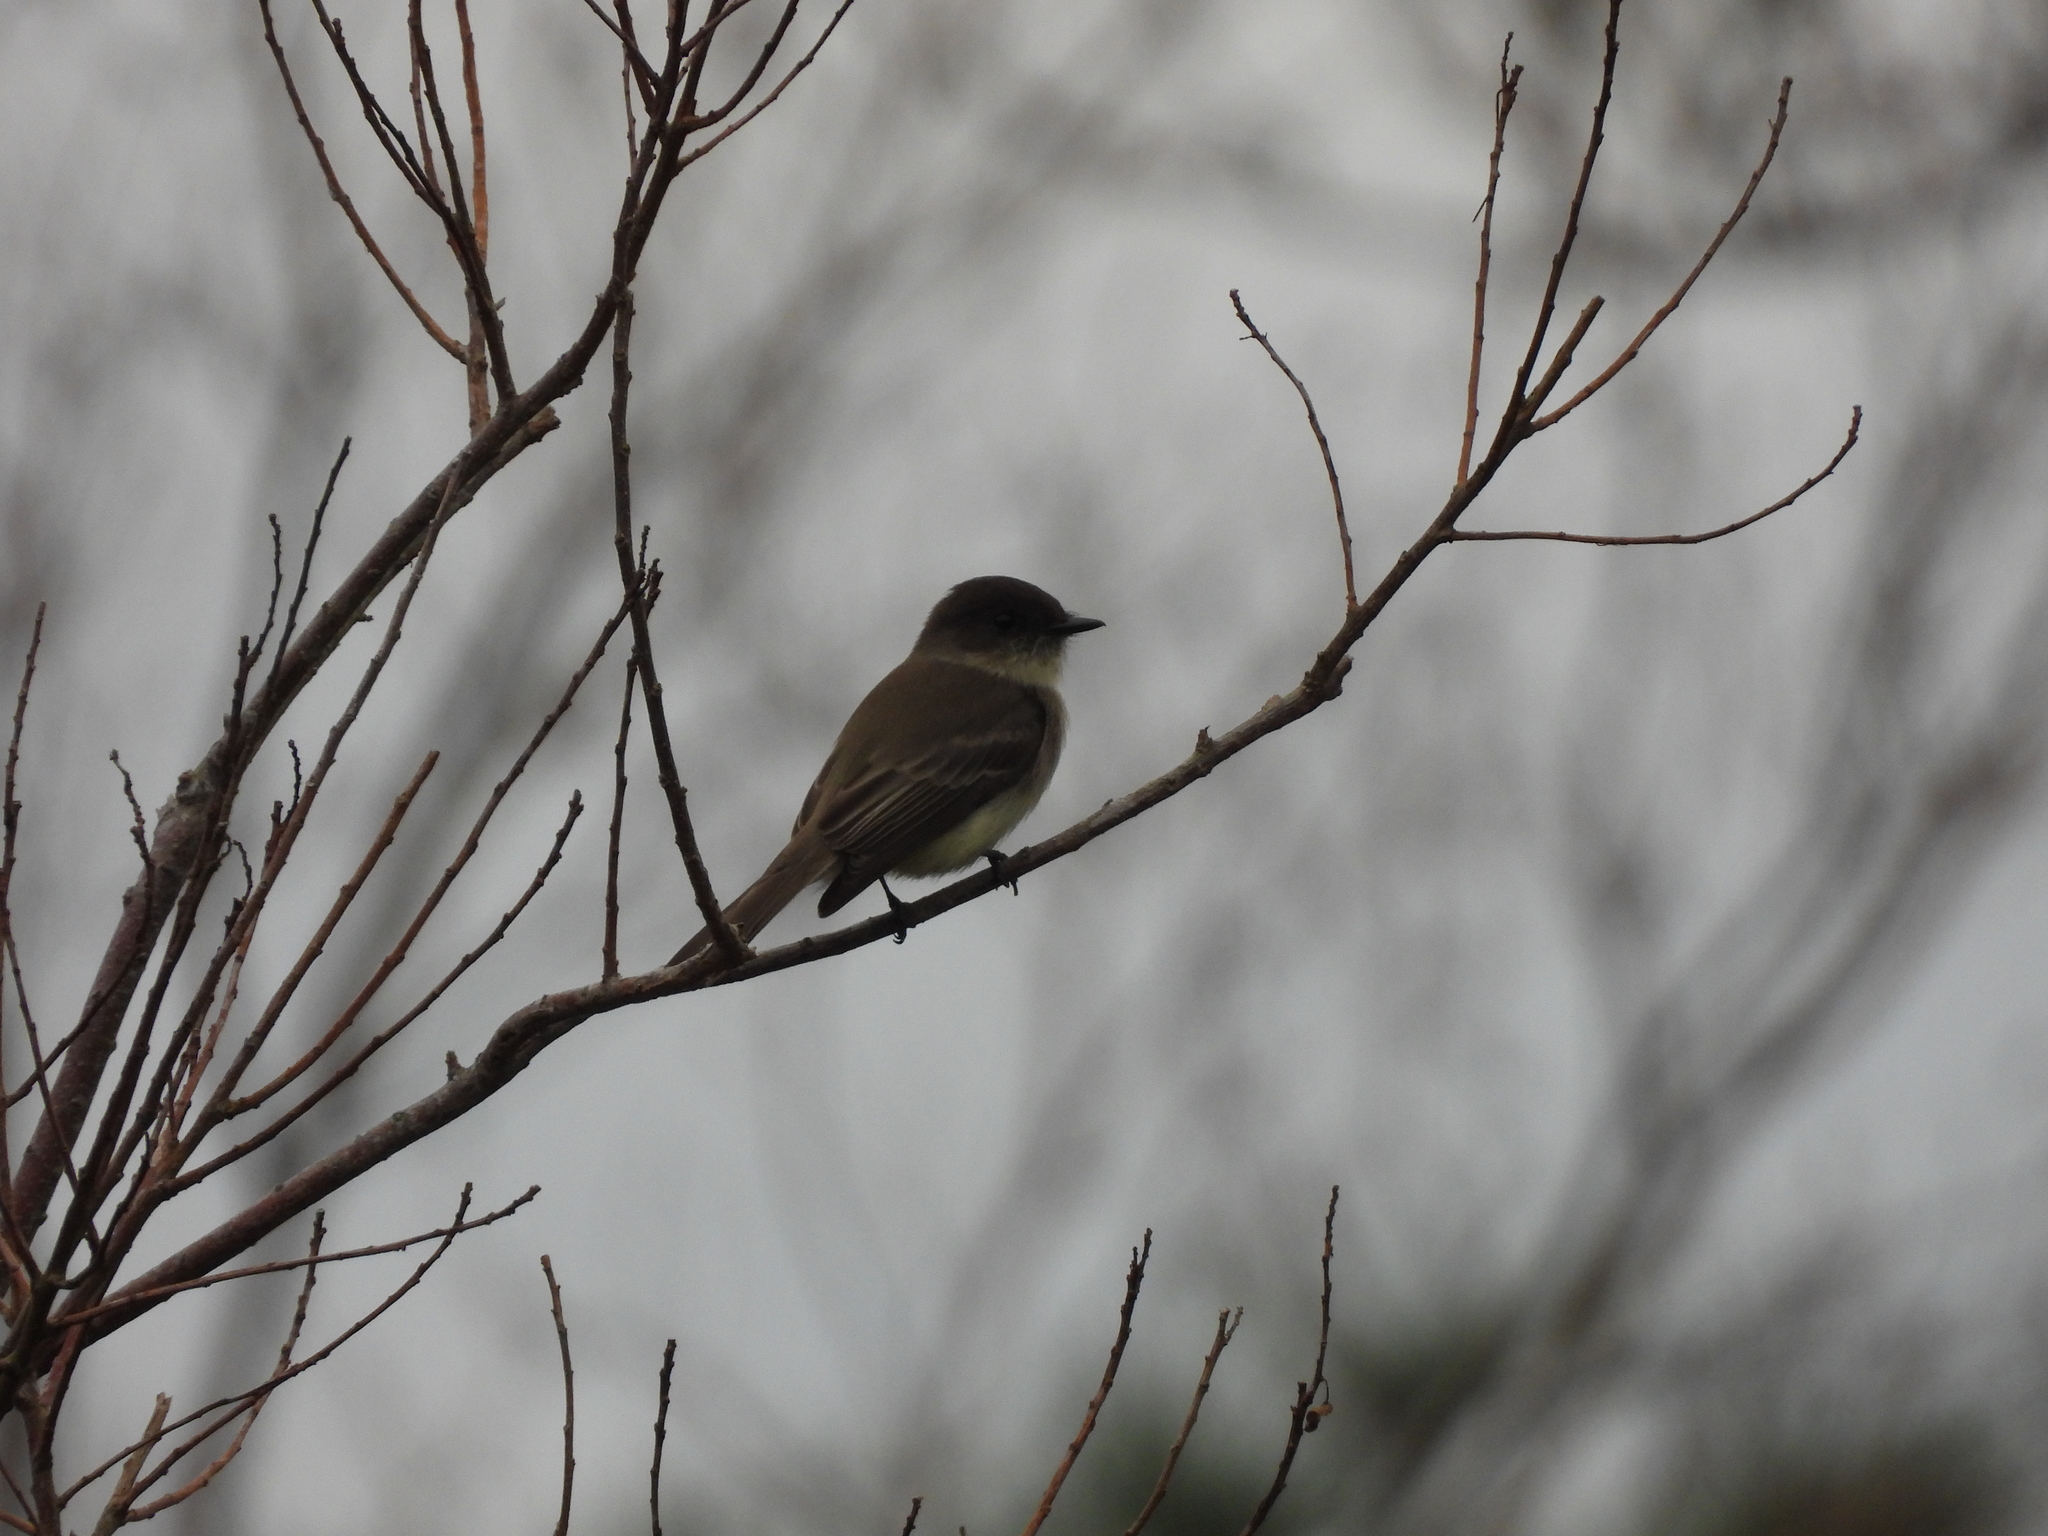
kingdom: Animalia
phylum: Chordata
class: Aves
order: Passeriformes
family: Tyrannidae
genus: Sayornis
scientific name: Sayornis phoebe
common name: Eastern phoebe
